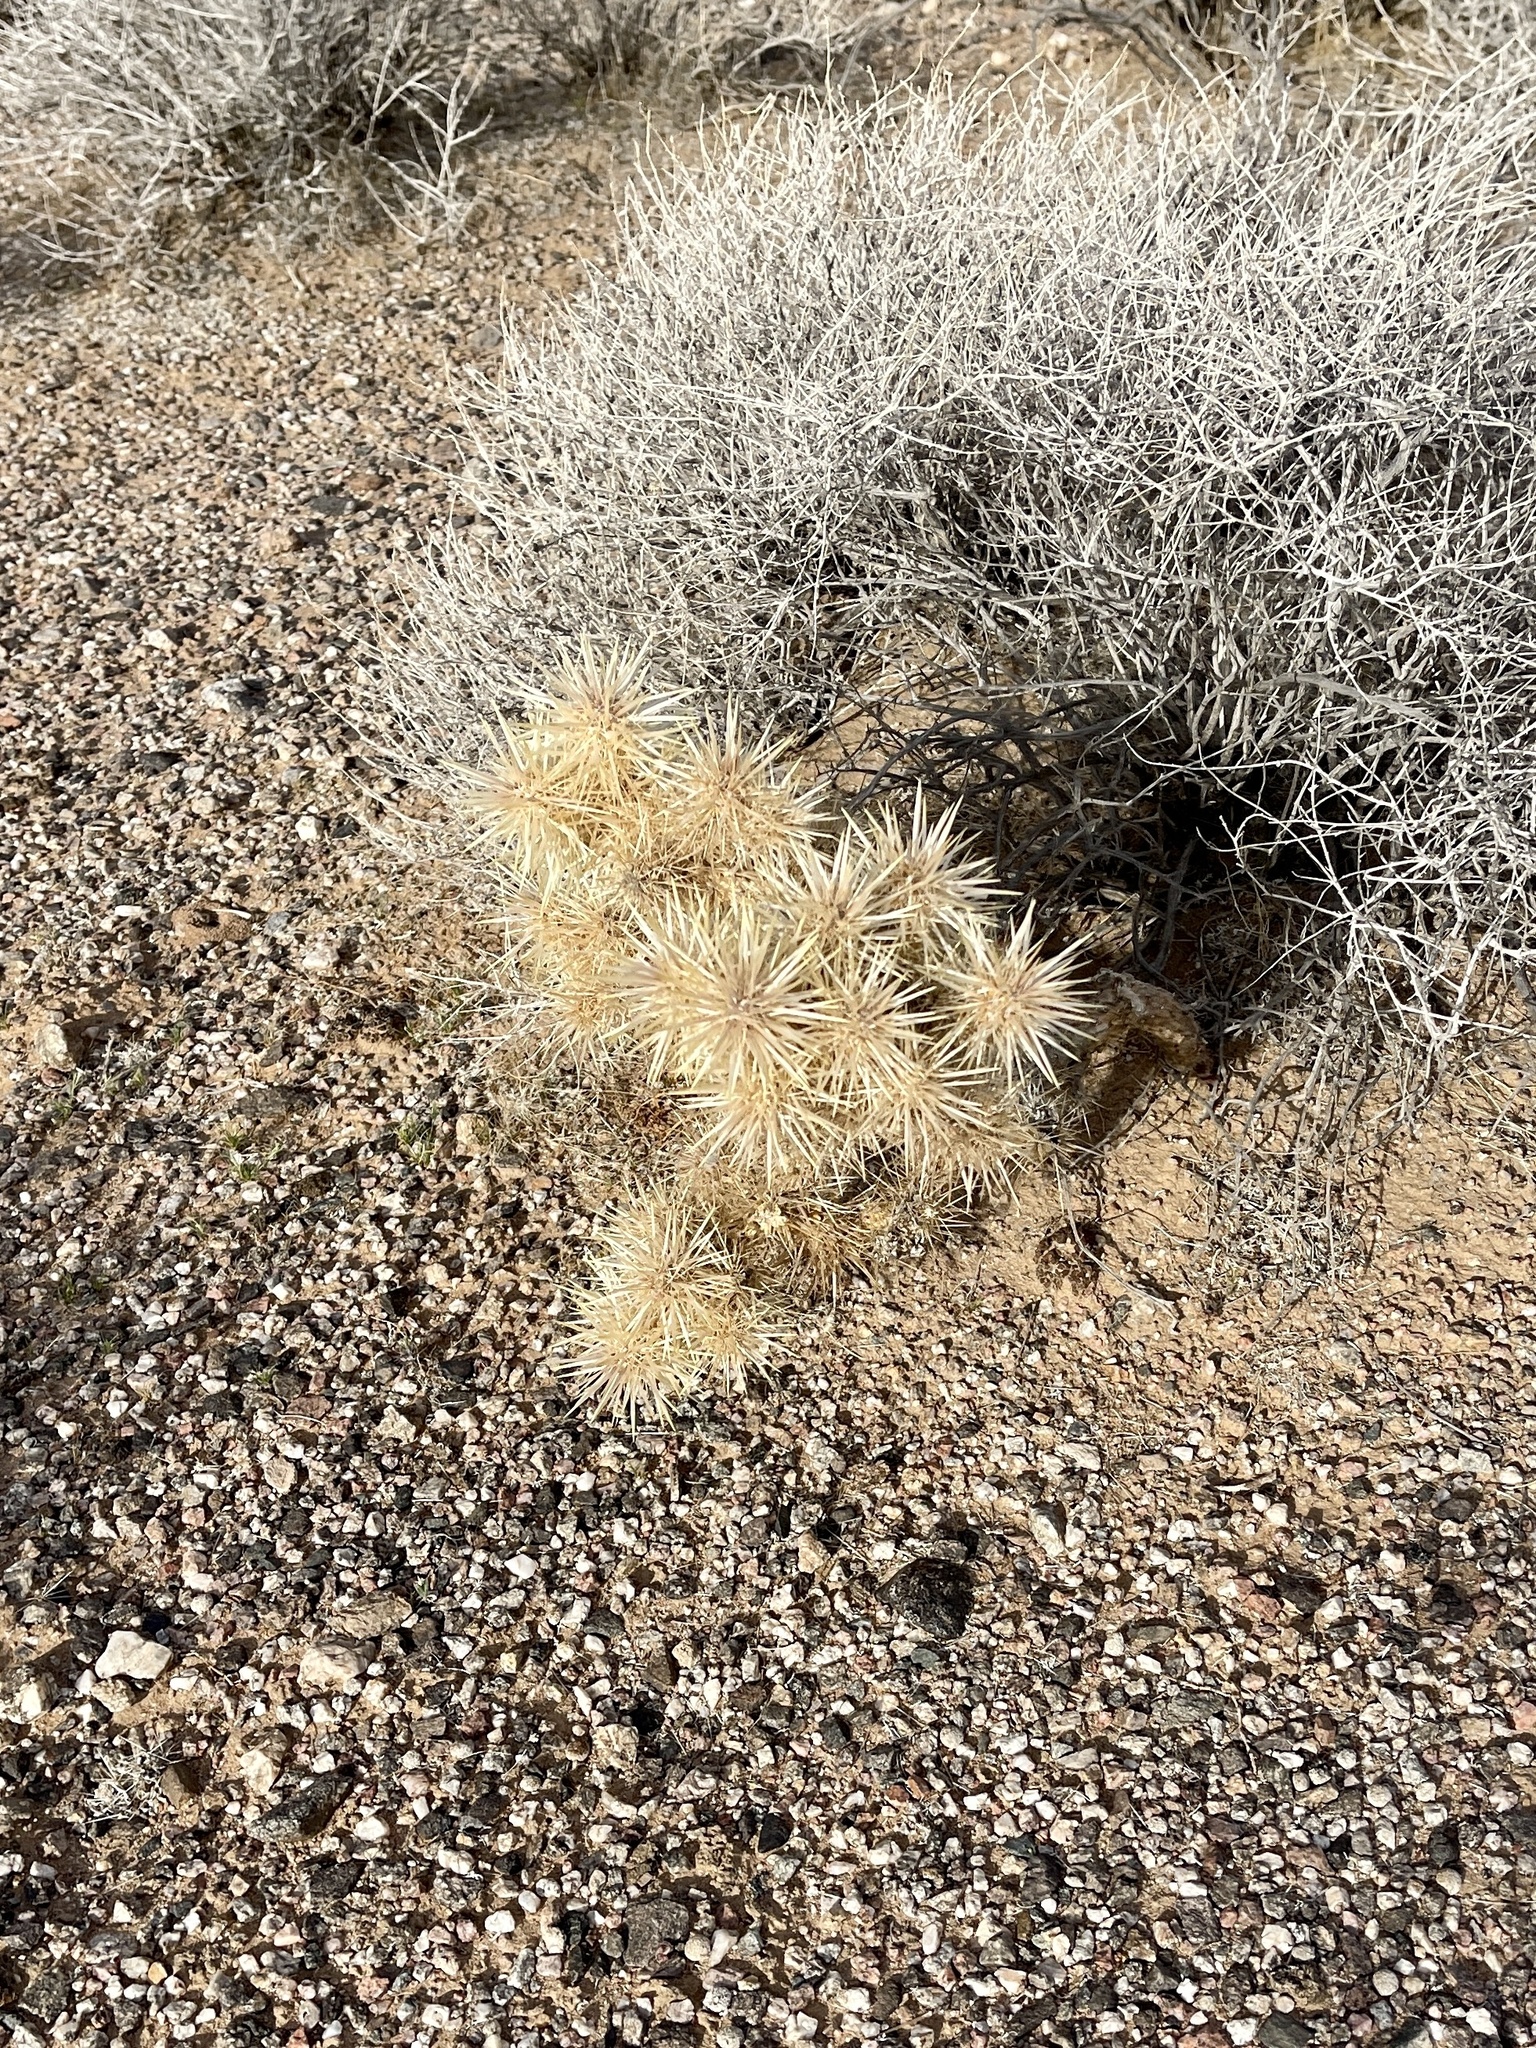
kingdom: Plantae
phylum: Tracheophyta
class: Magnoliopsida
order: Caryophyllales
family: Cactaceae
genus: Cylindropuntia
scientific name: Cylindropuntia echinocarpa
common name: Ground cholla
